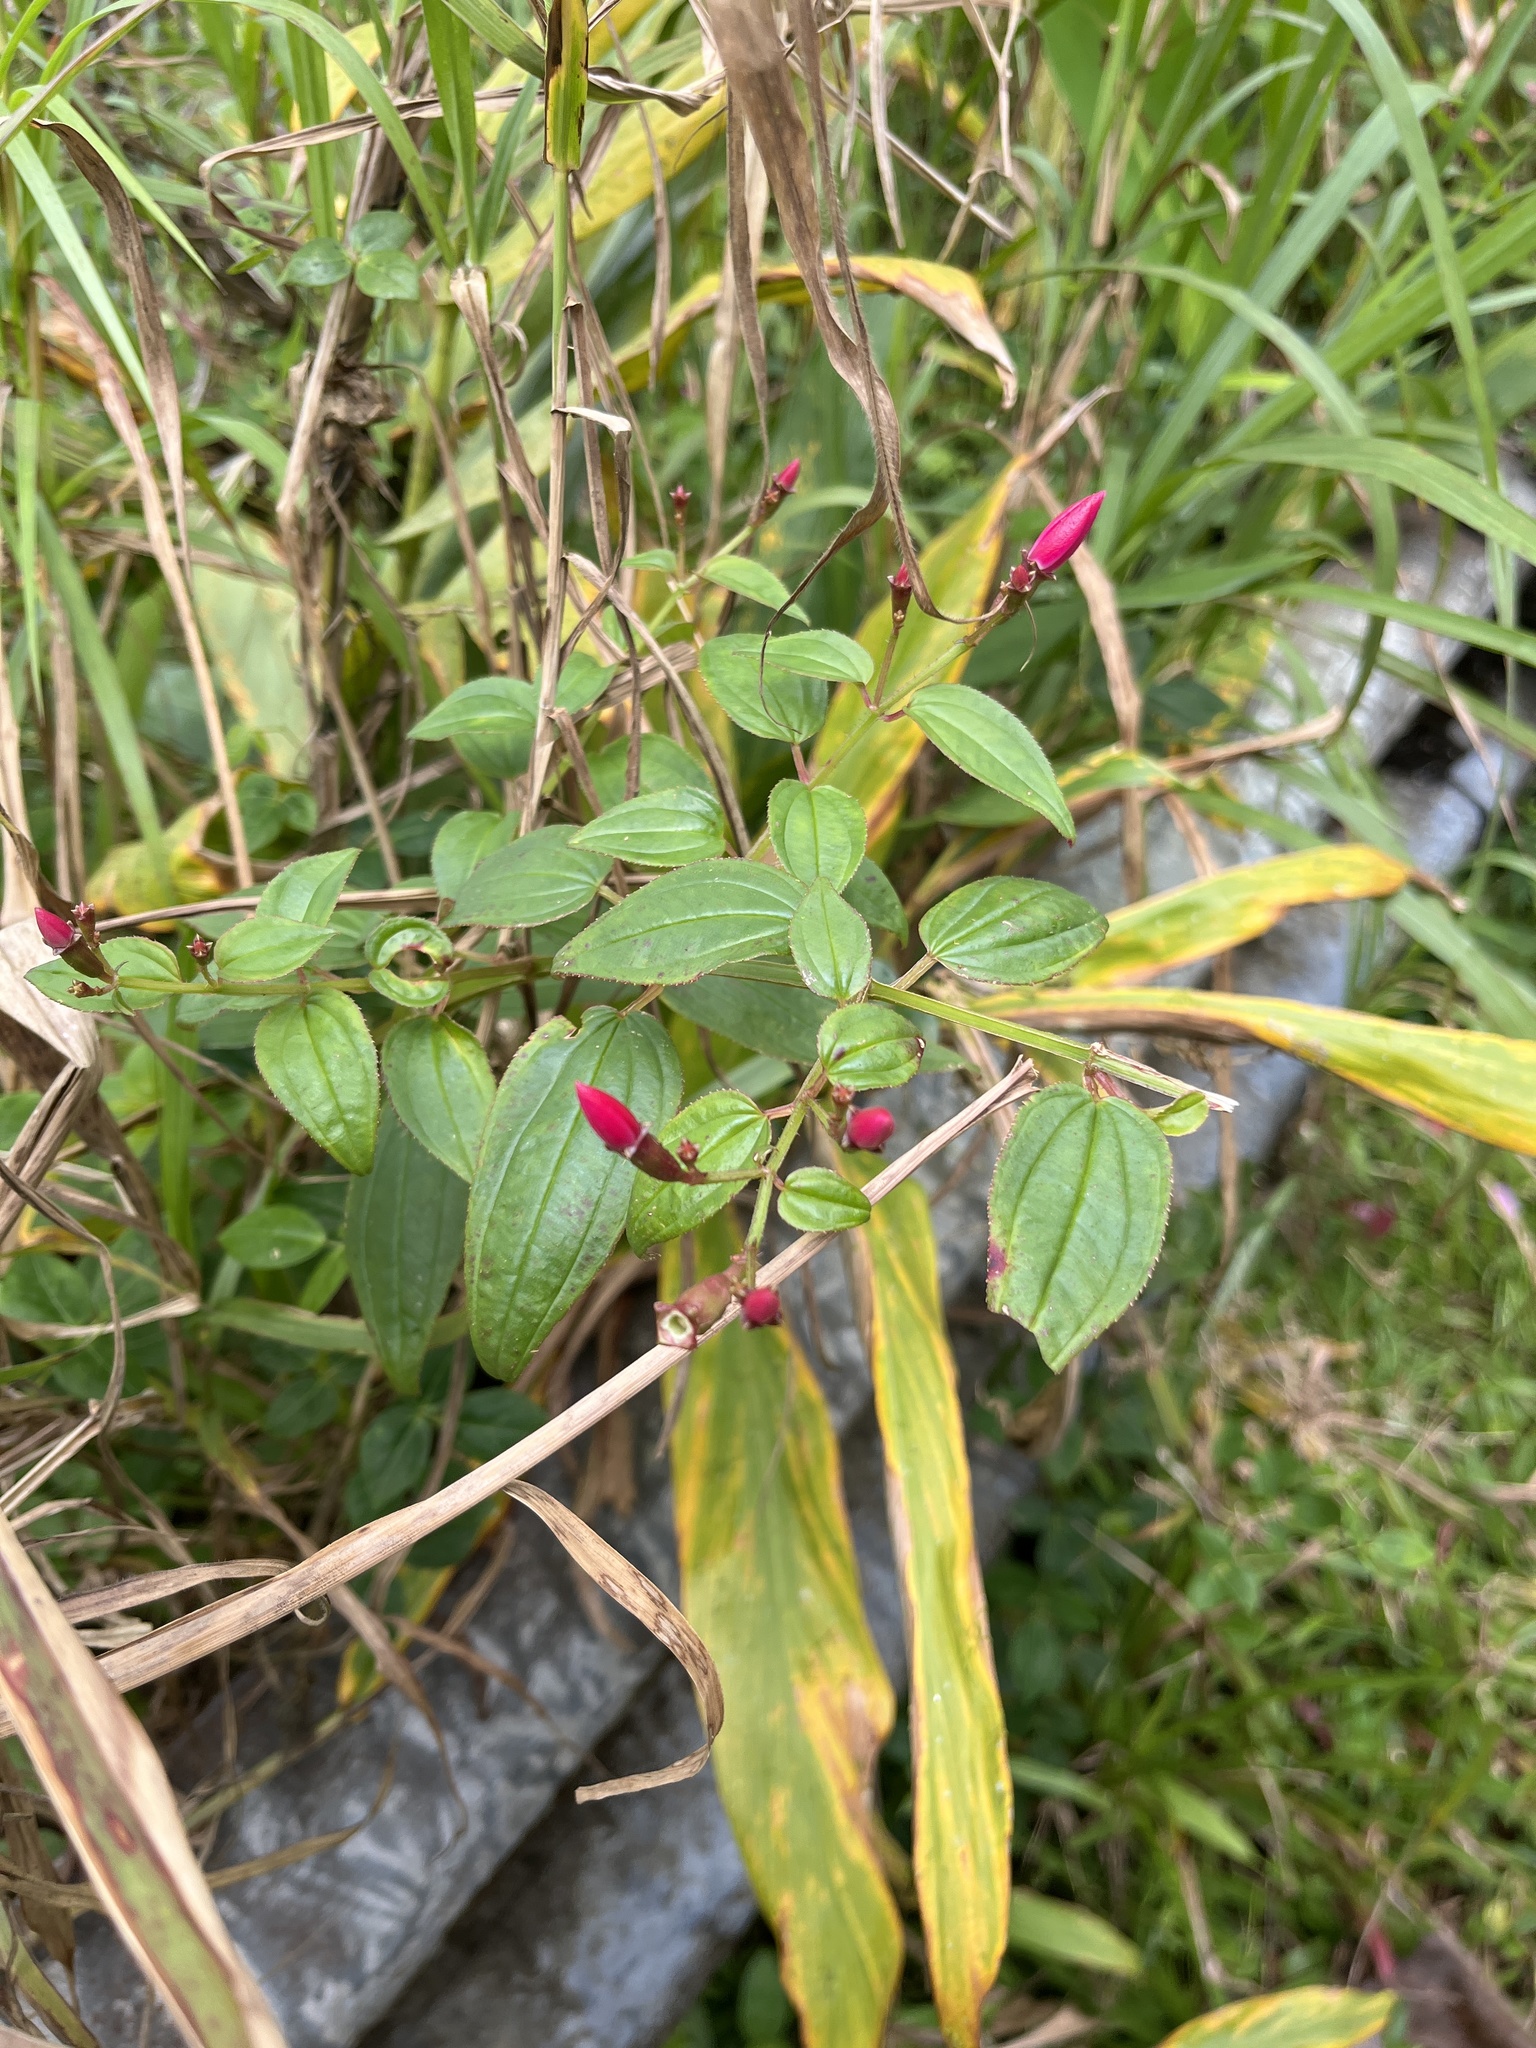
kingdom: Plantae
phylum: Tracheophyta
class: Magnoliopsida
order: Myrtales
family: Melastomataceae
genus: Arthrostemma
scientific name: Arthrostemma ciliatum
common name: Everblooming eavender
